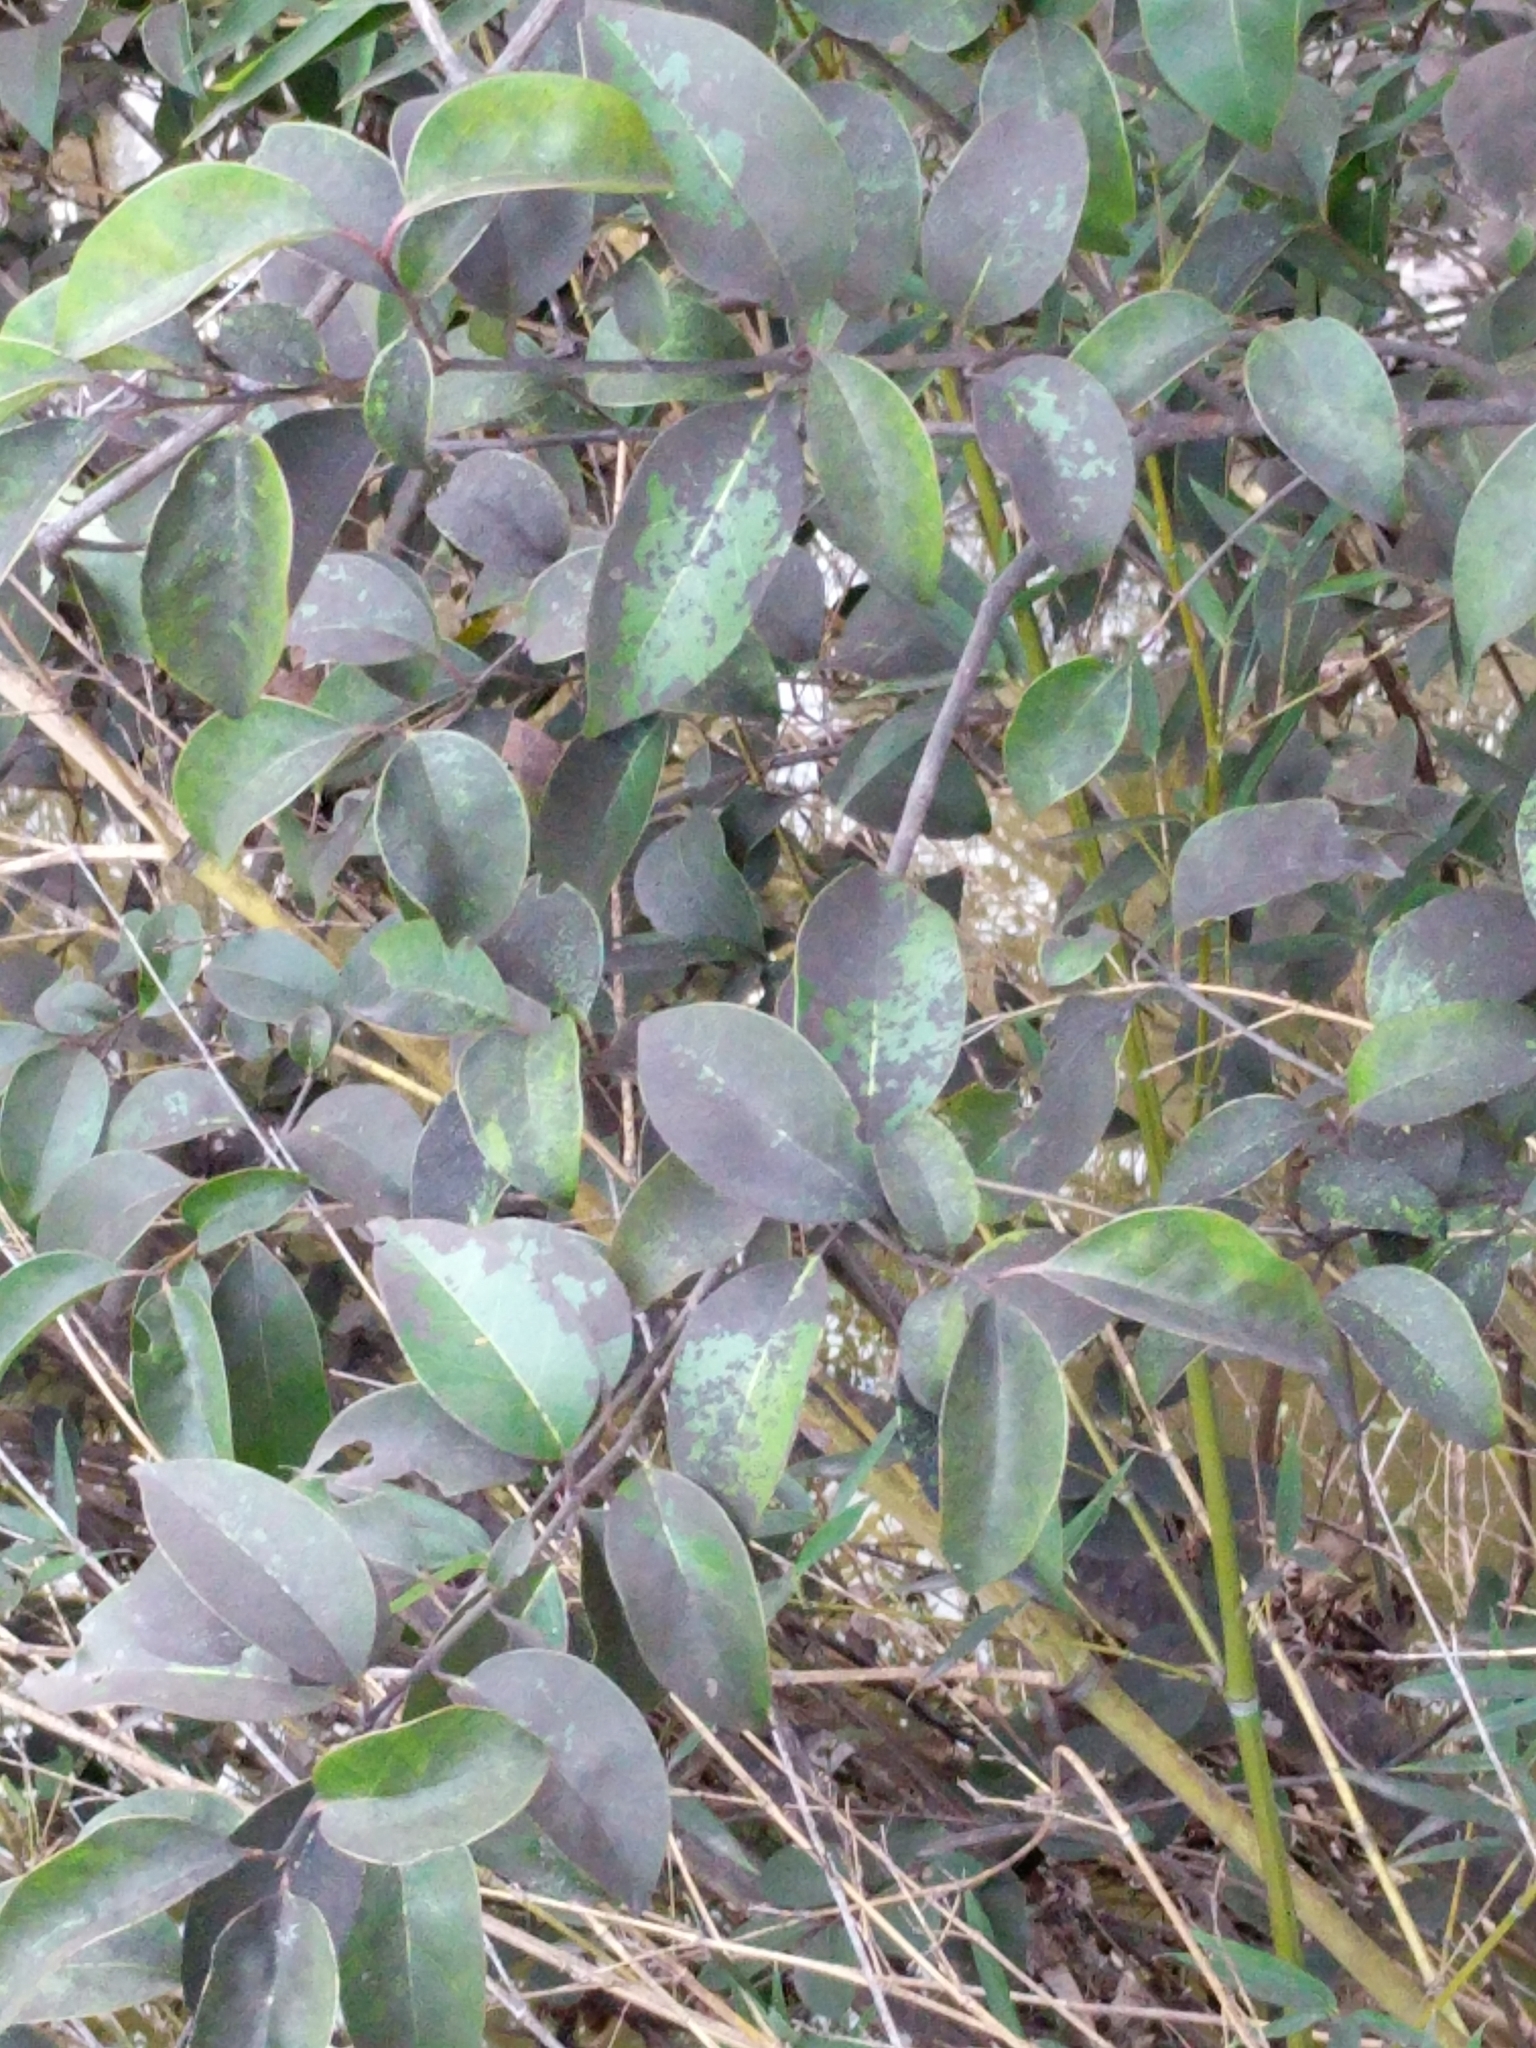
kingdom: Plantae
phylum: Tracheophyta
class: Magnoliopsida
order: Lamiales
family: Oleaceae
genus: Ligustrum
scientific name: Ligustrum lucidum
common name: Glossy privet
